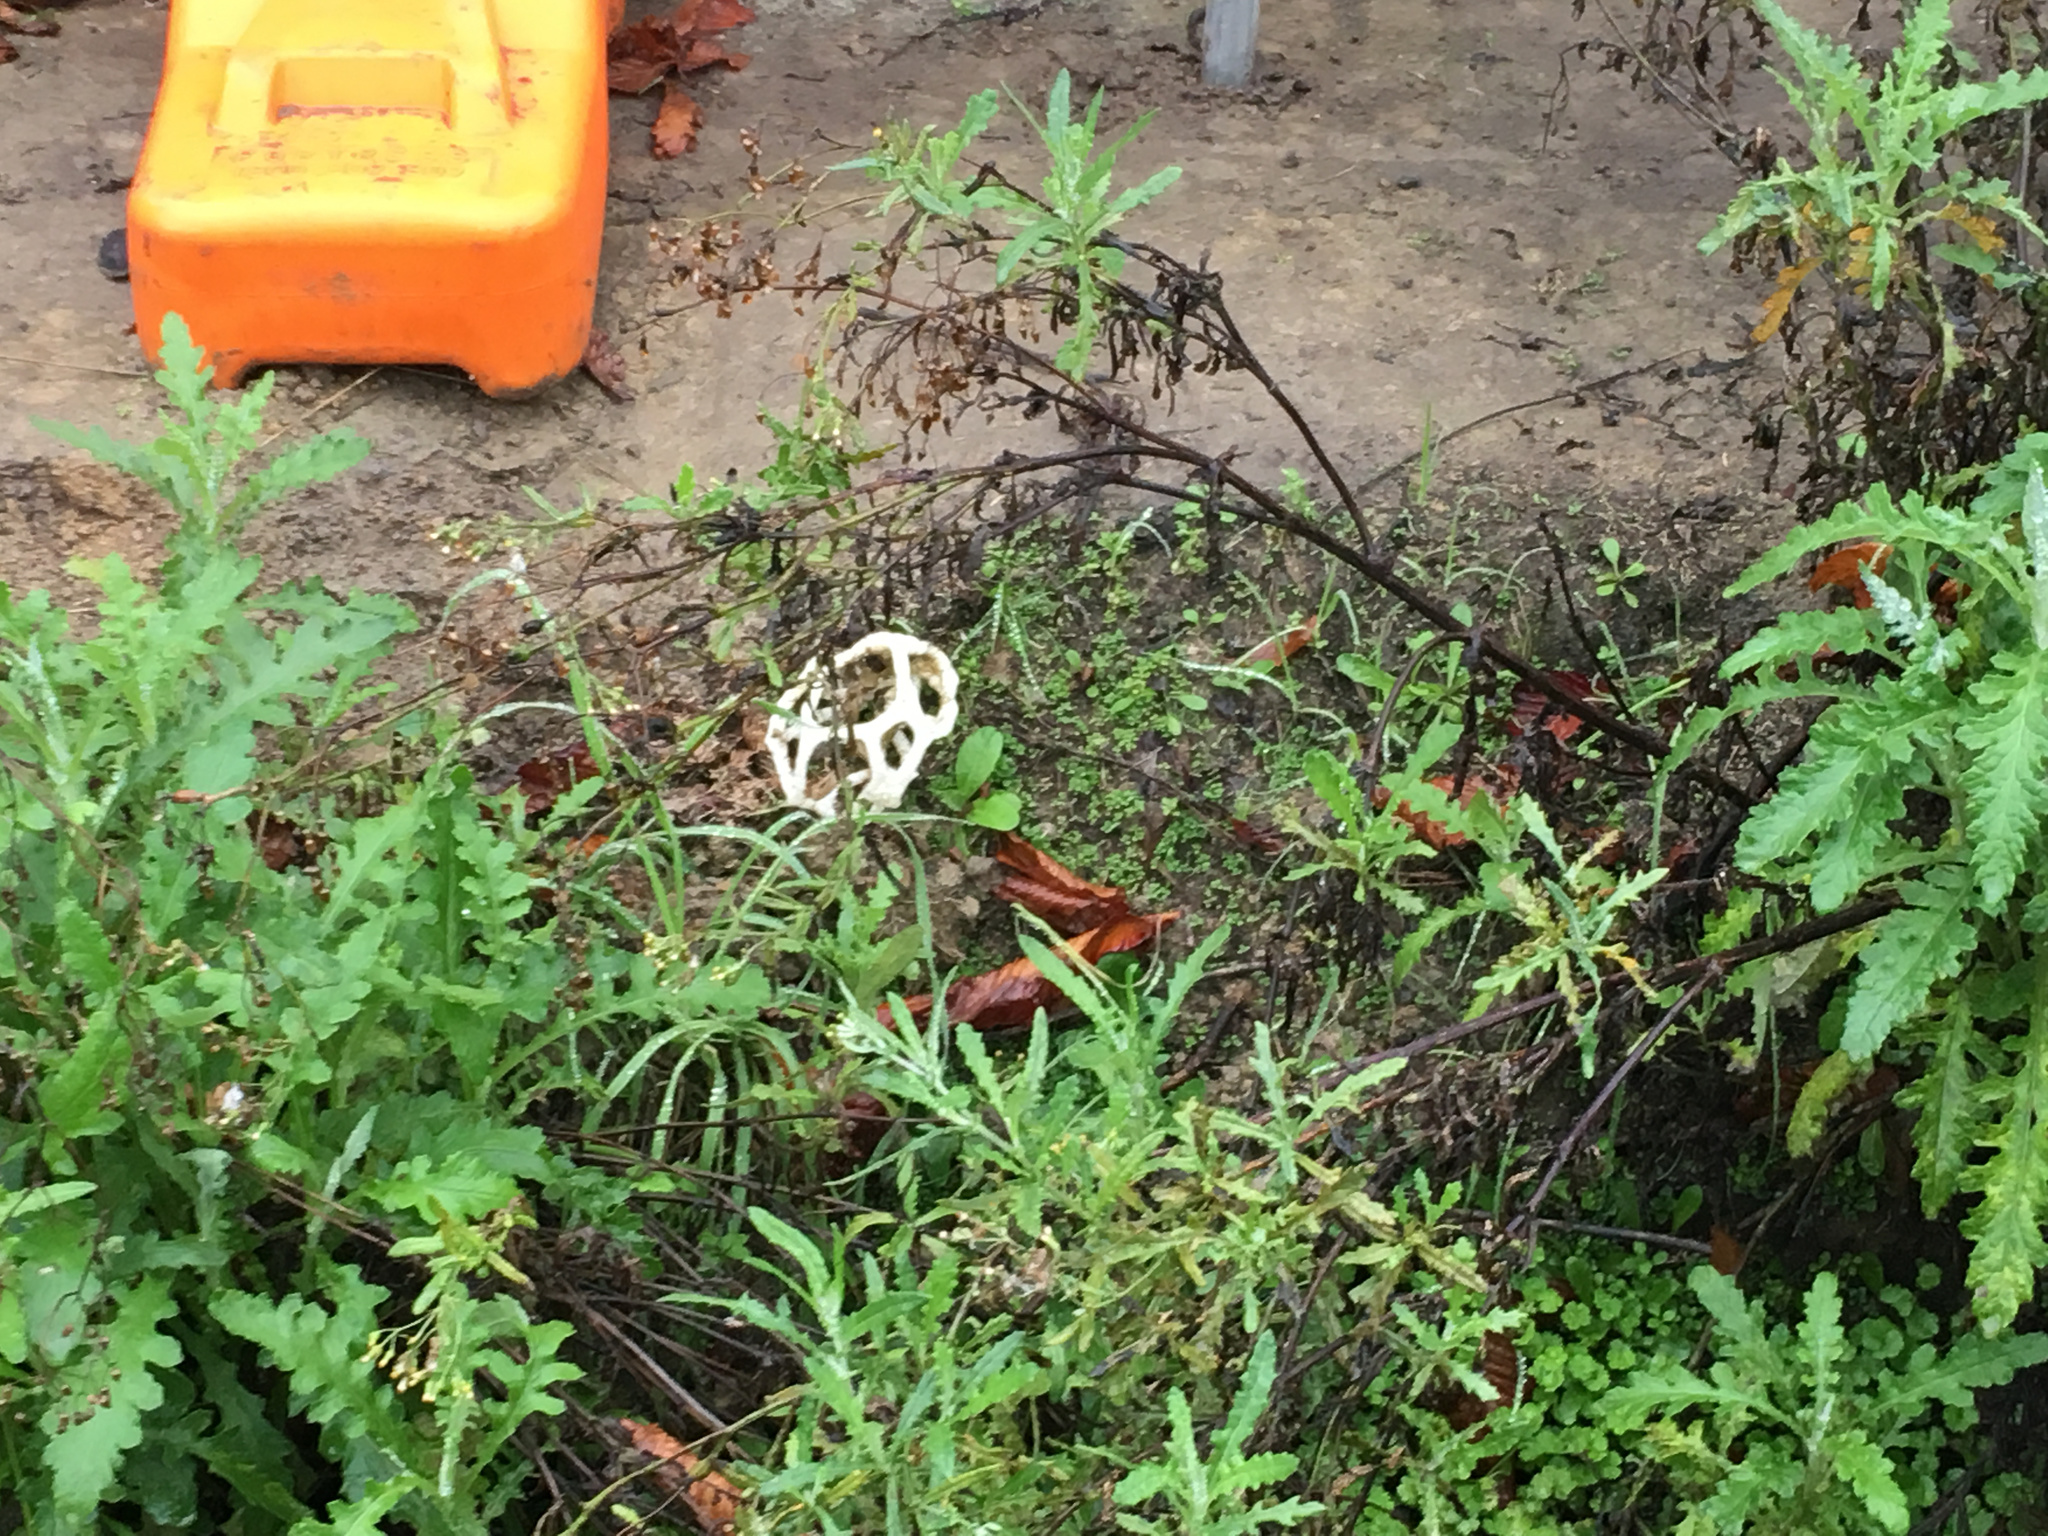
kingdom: Fungi
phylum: Basidiomycota
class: Agaricomycetes
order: Phallales
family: Phallaceae
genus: Ileodictyon
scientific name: Ileodictyon cibarium
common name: Basket fungus
